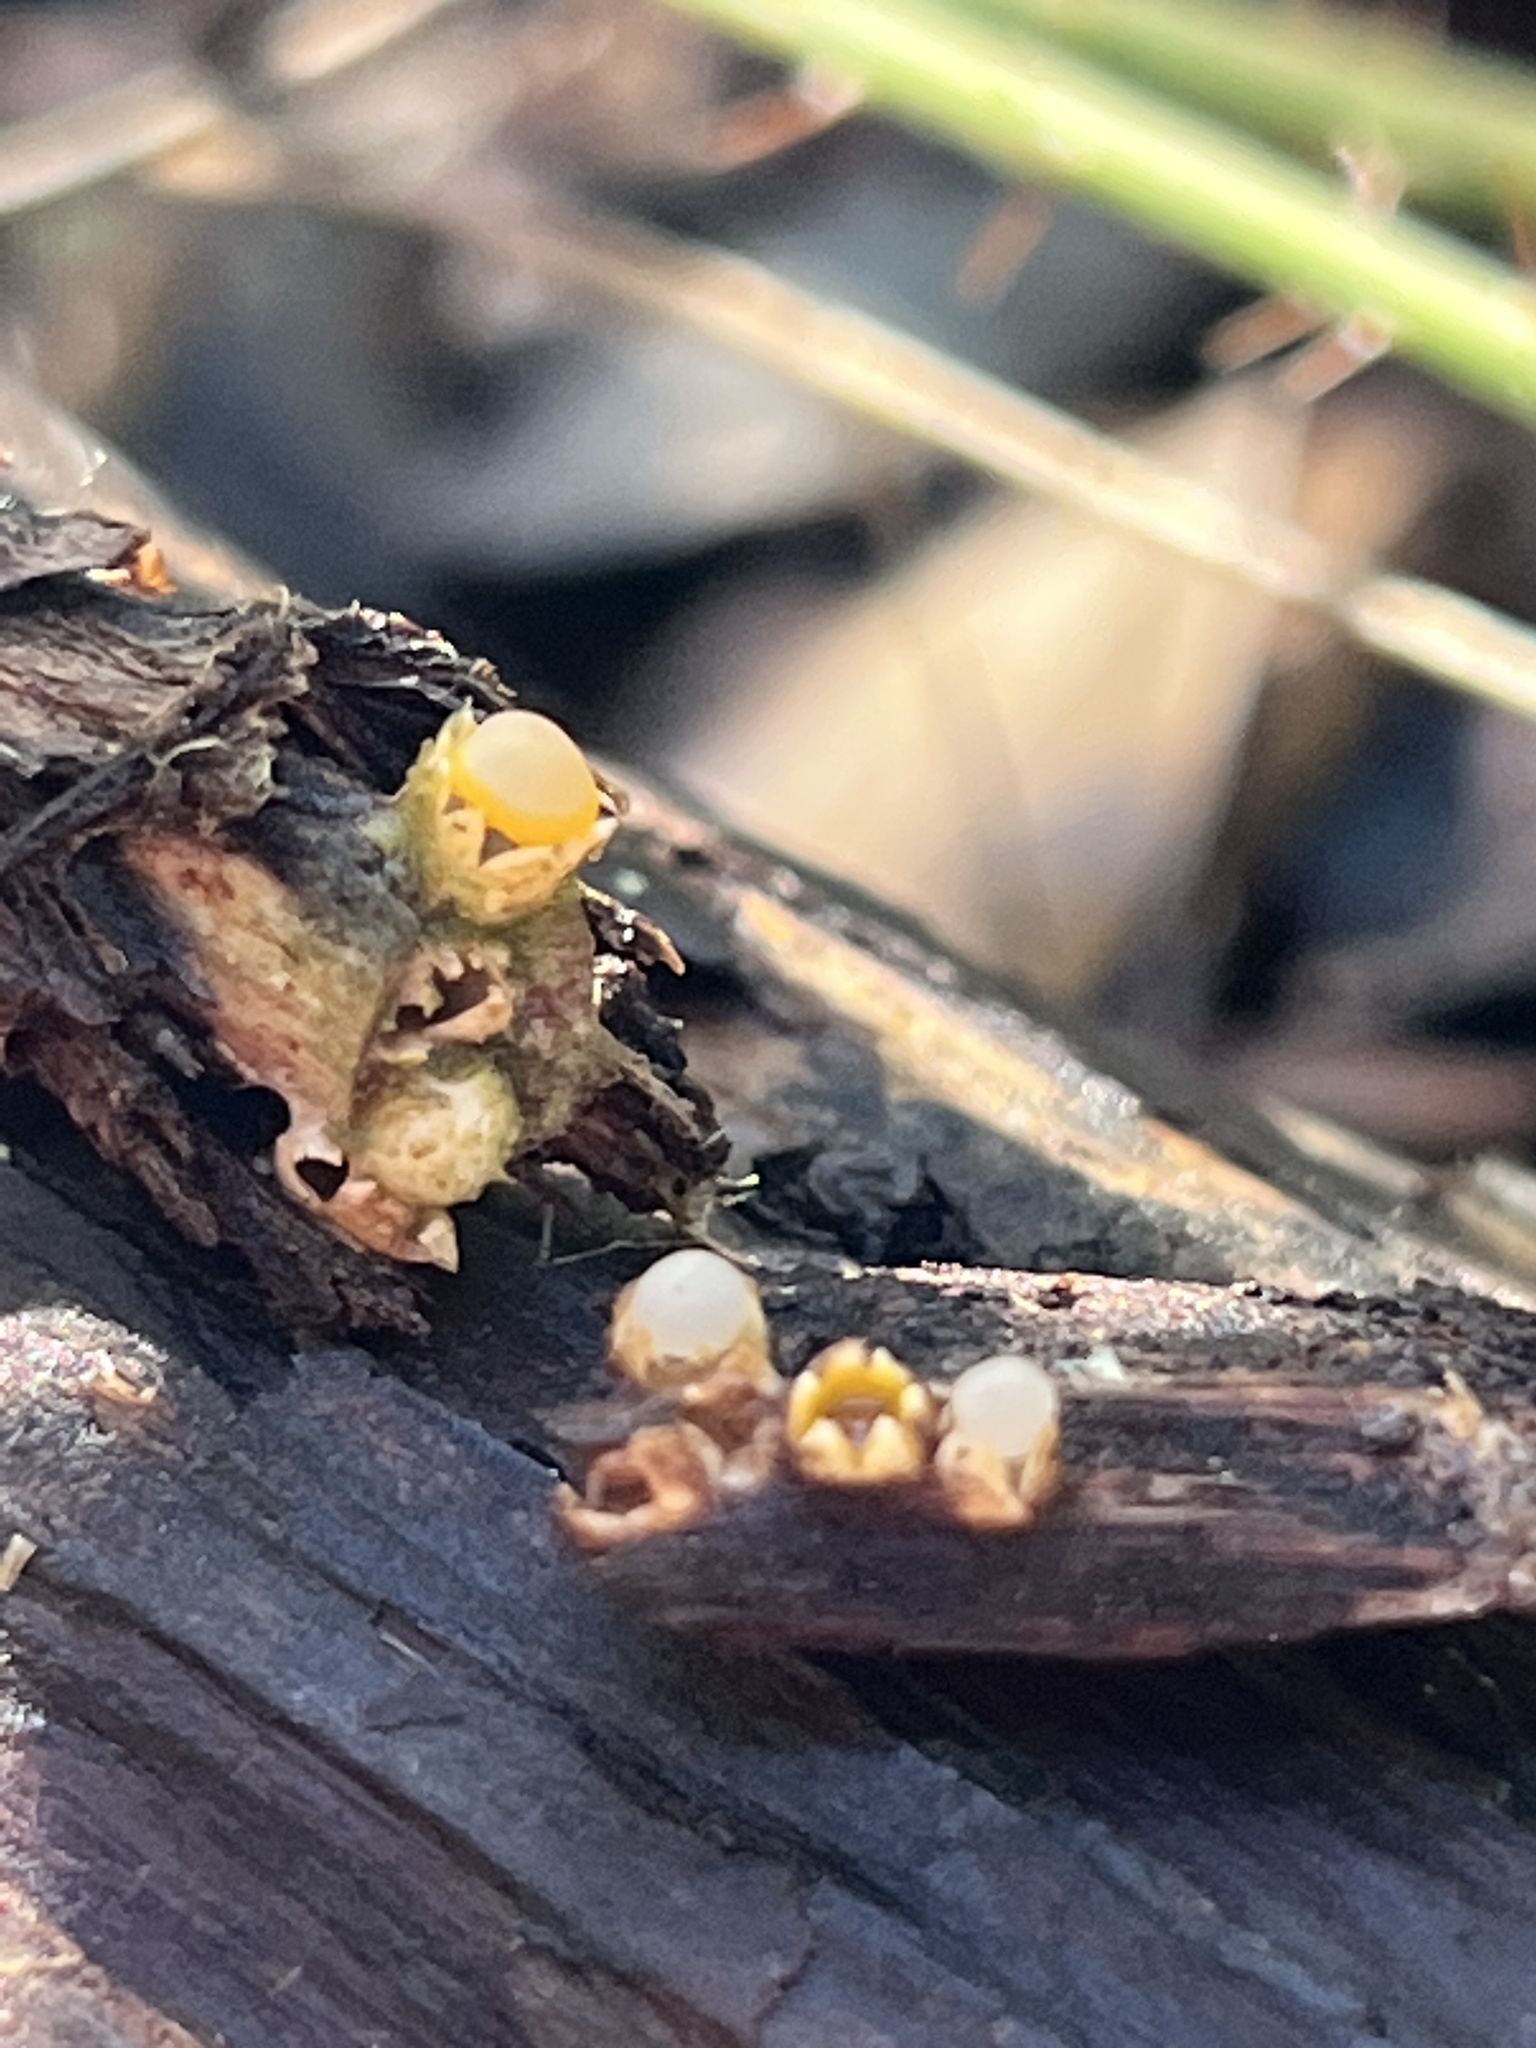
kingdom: Fungi
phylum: Basidiomycota
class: Agaricomycetes
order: Geastrales
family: Geastraceae
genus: Sphaerobolus
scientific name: Sphaerobolus stellatus
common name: Cannon fungus
